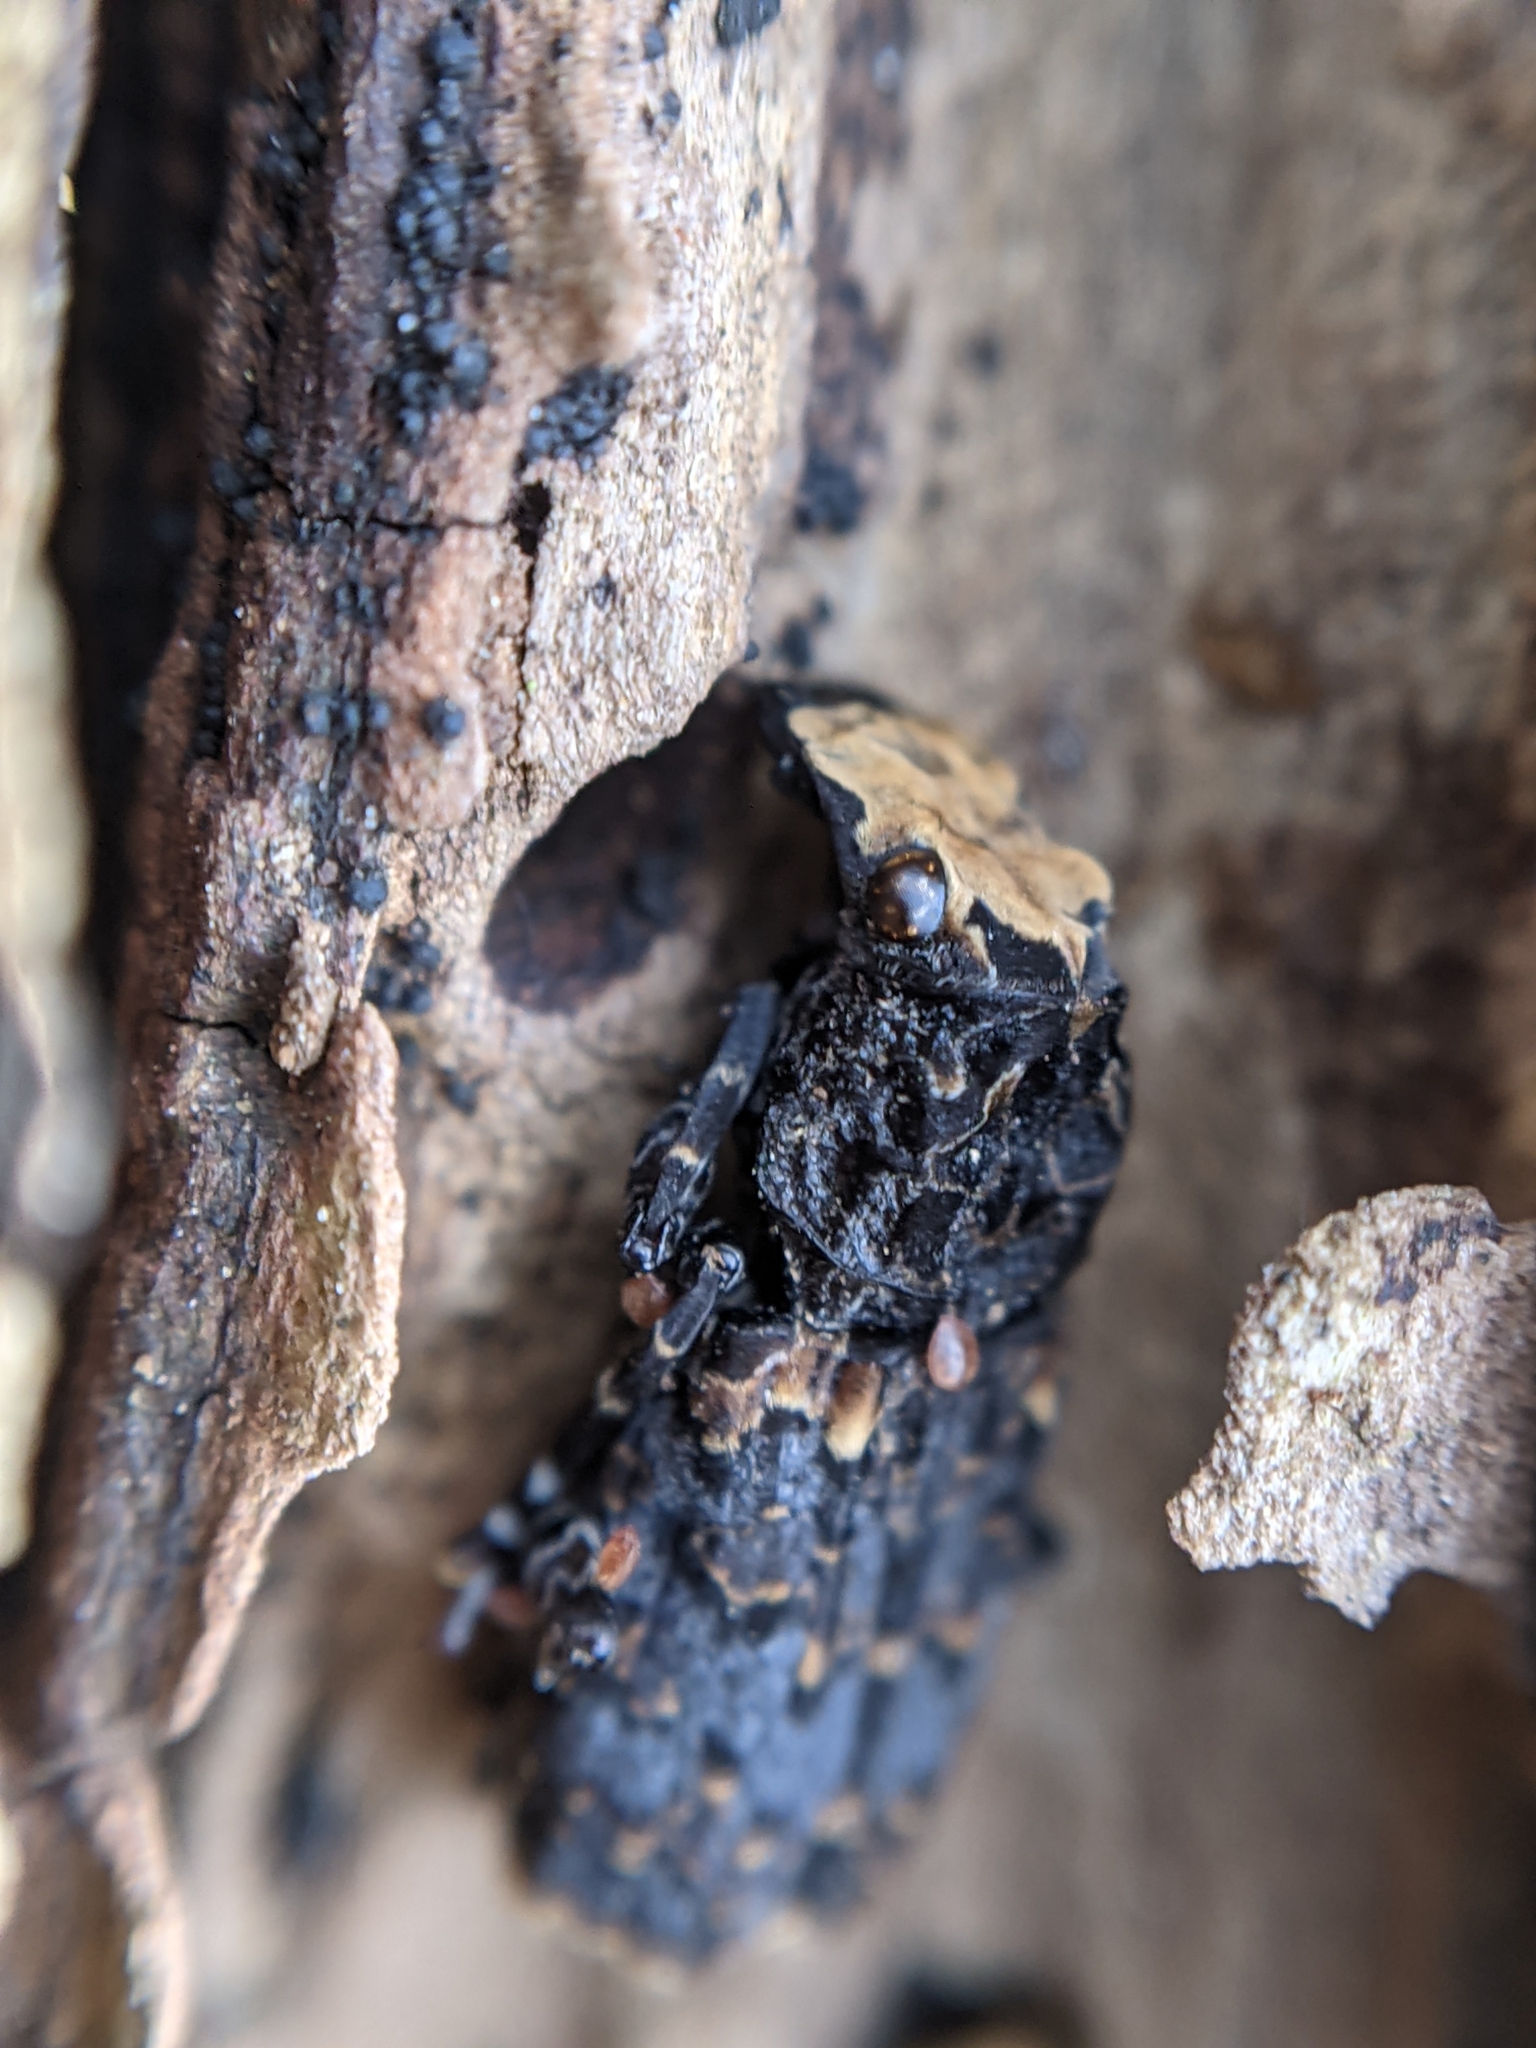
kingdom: Animalia
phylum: Arthropoda
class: Insecta
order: Coleoptera
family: Anthribidae
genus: Platyrhinus
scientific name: Platyrhinus resinosus
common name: Cramp-ball fungus weevil
